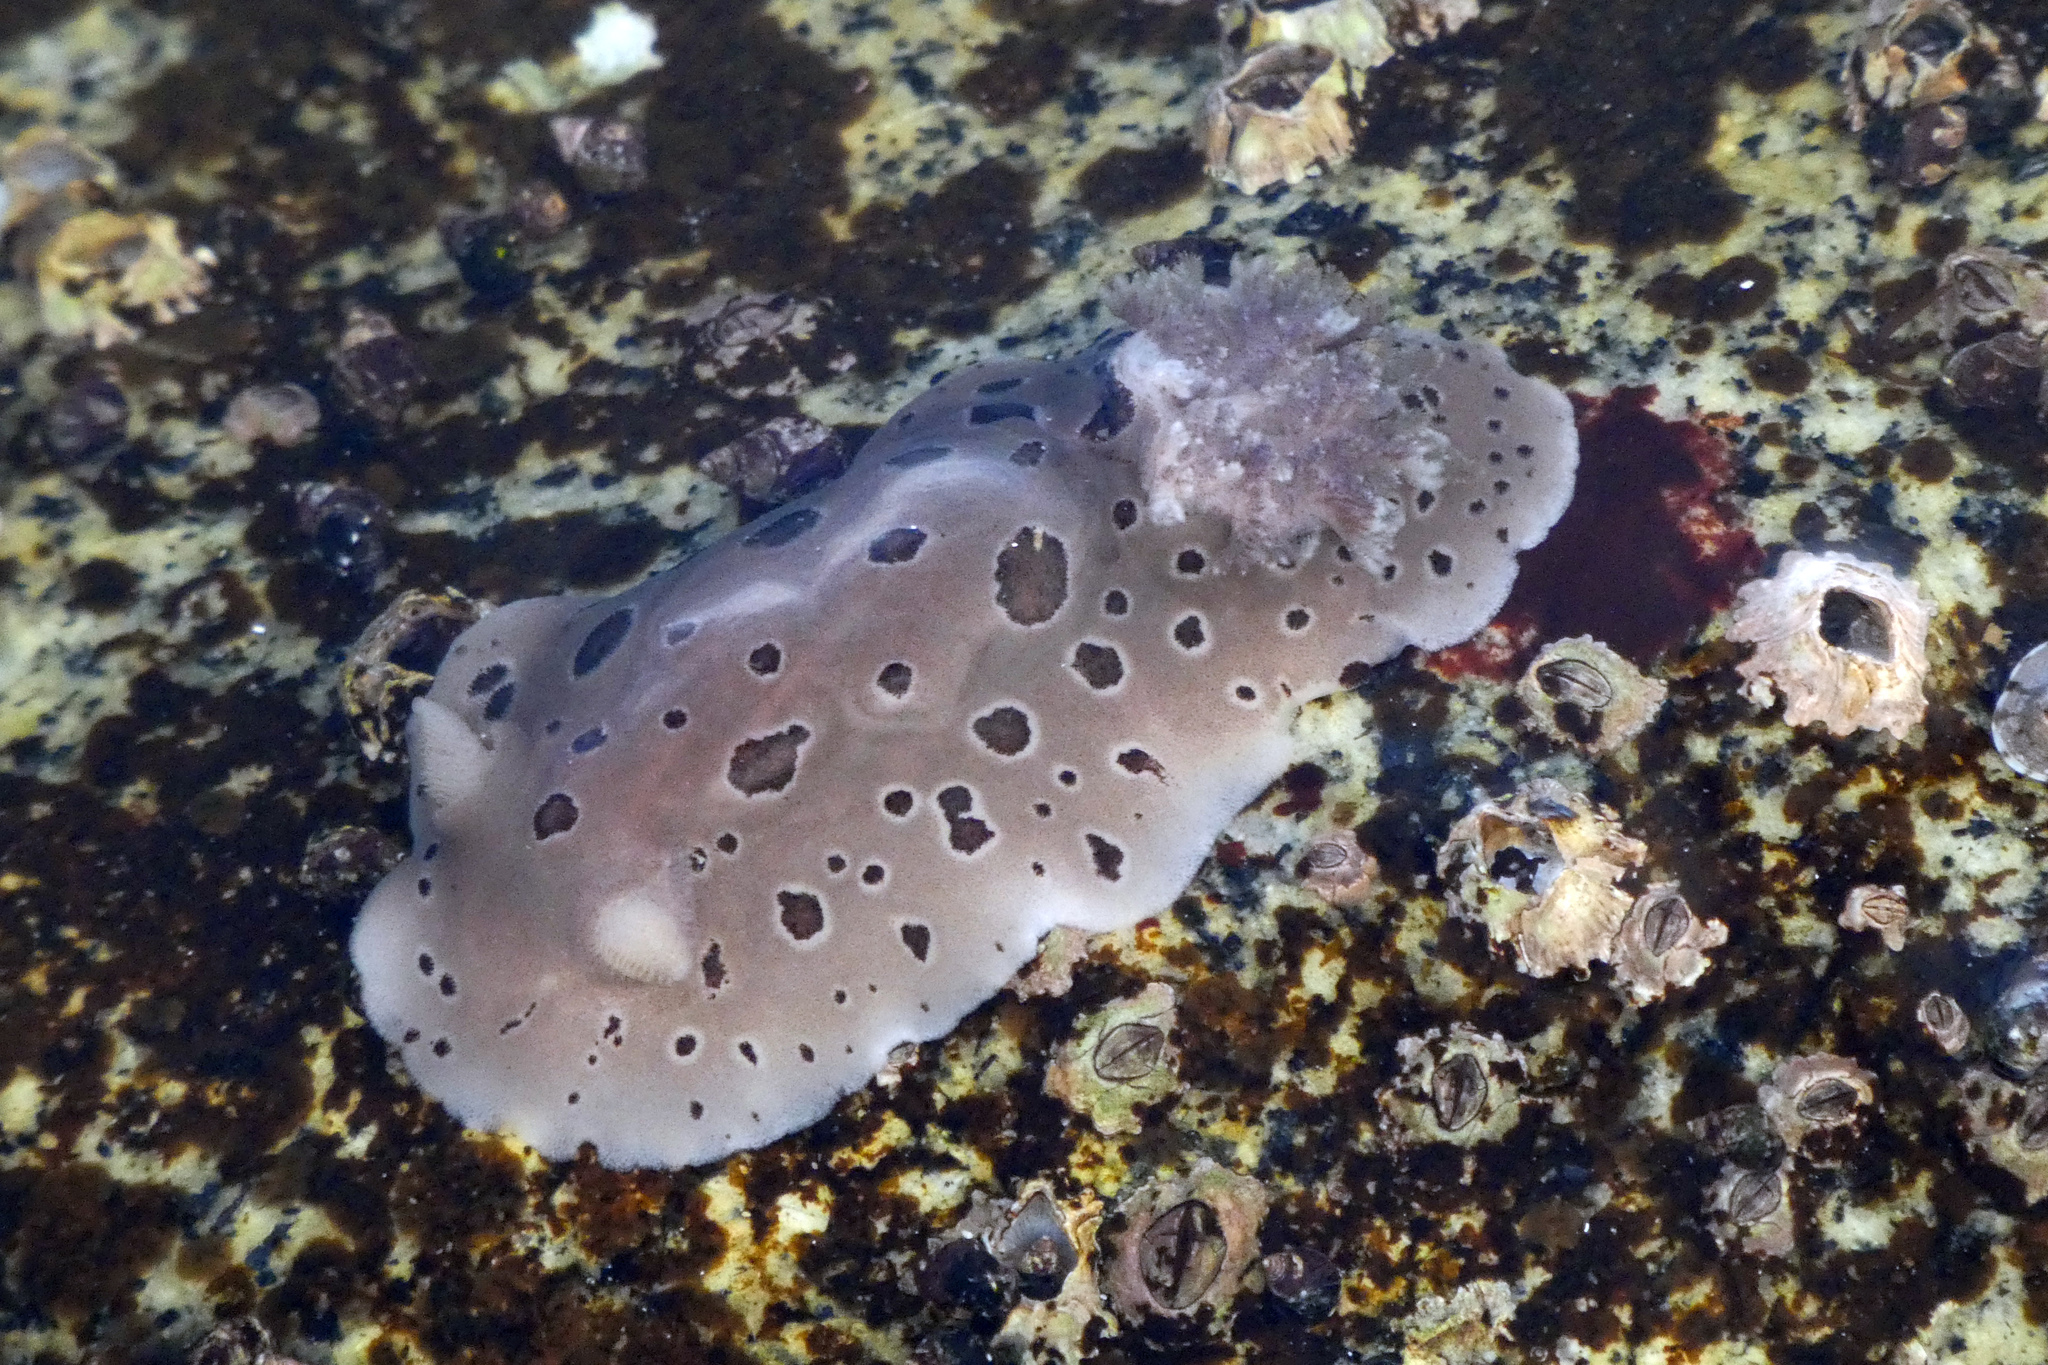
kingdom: Animalia
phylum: Mollusca
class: Gastropoda
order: Nudibranchia
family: Discodorididae
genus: Diaulula
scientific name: Diaulula odonoghuei
